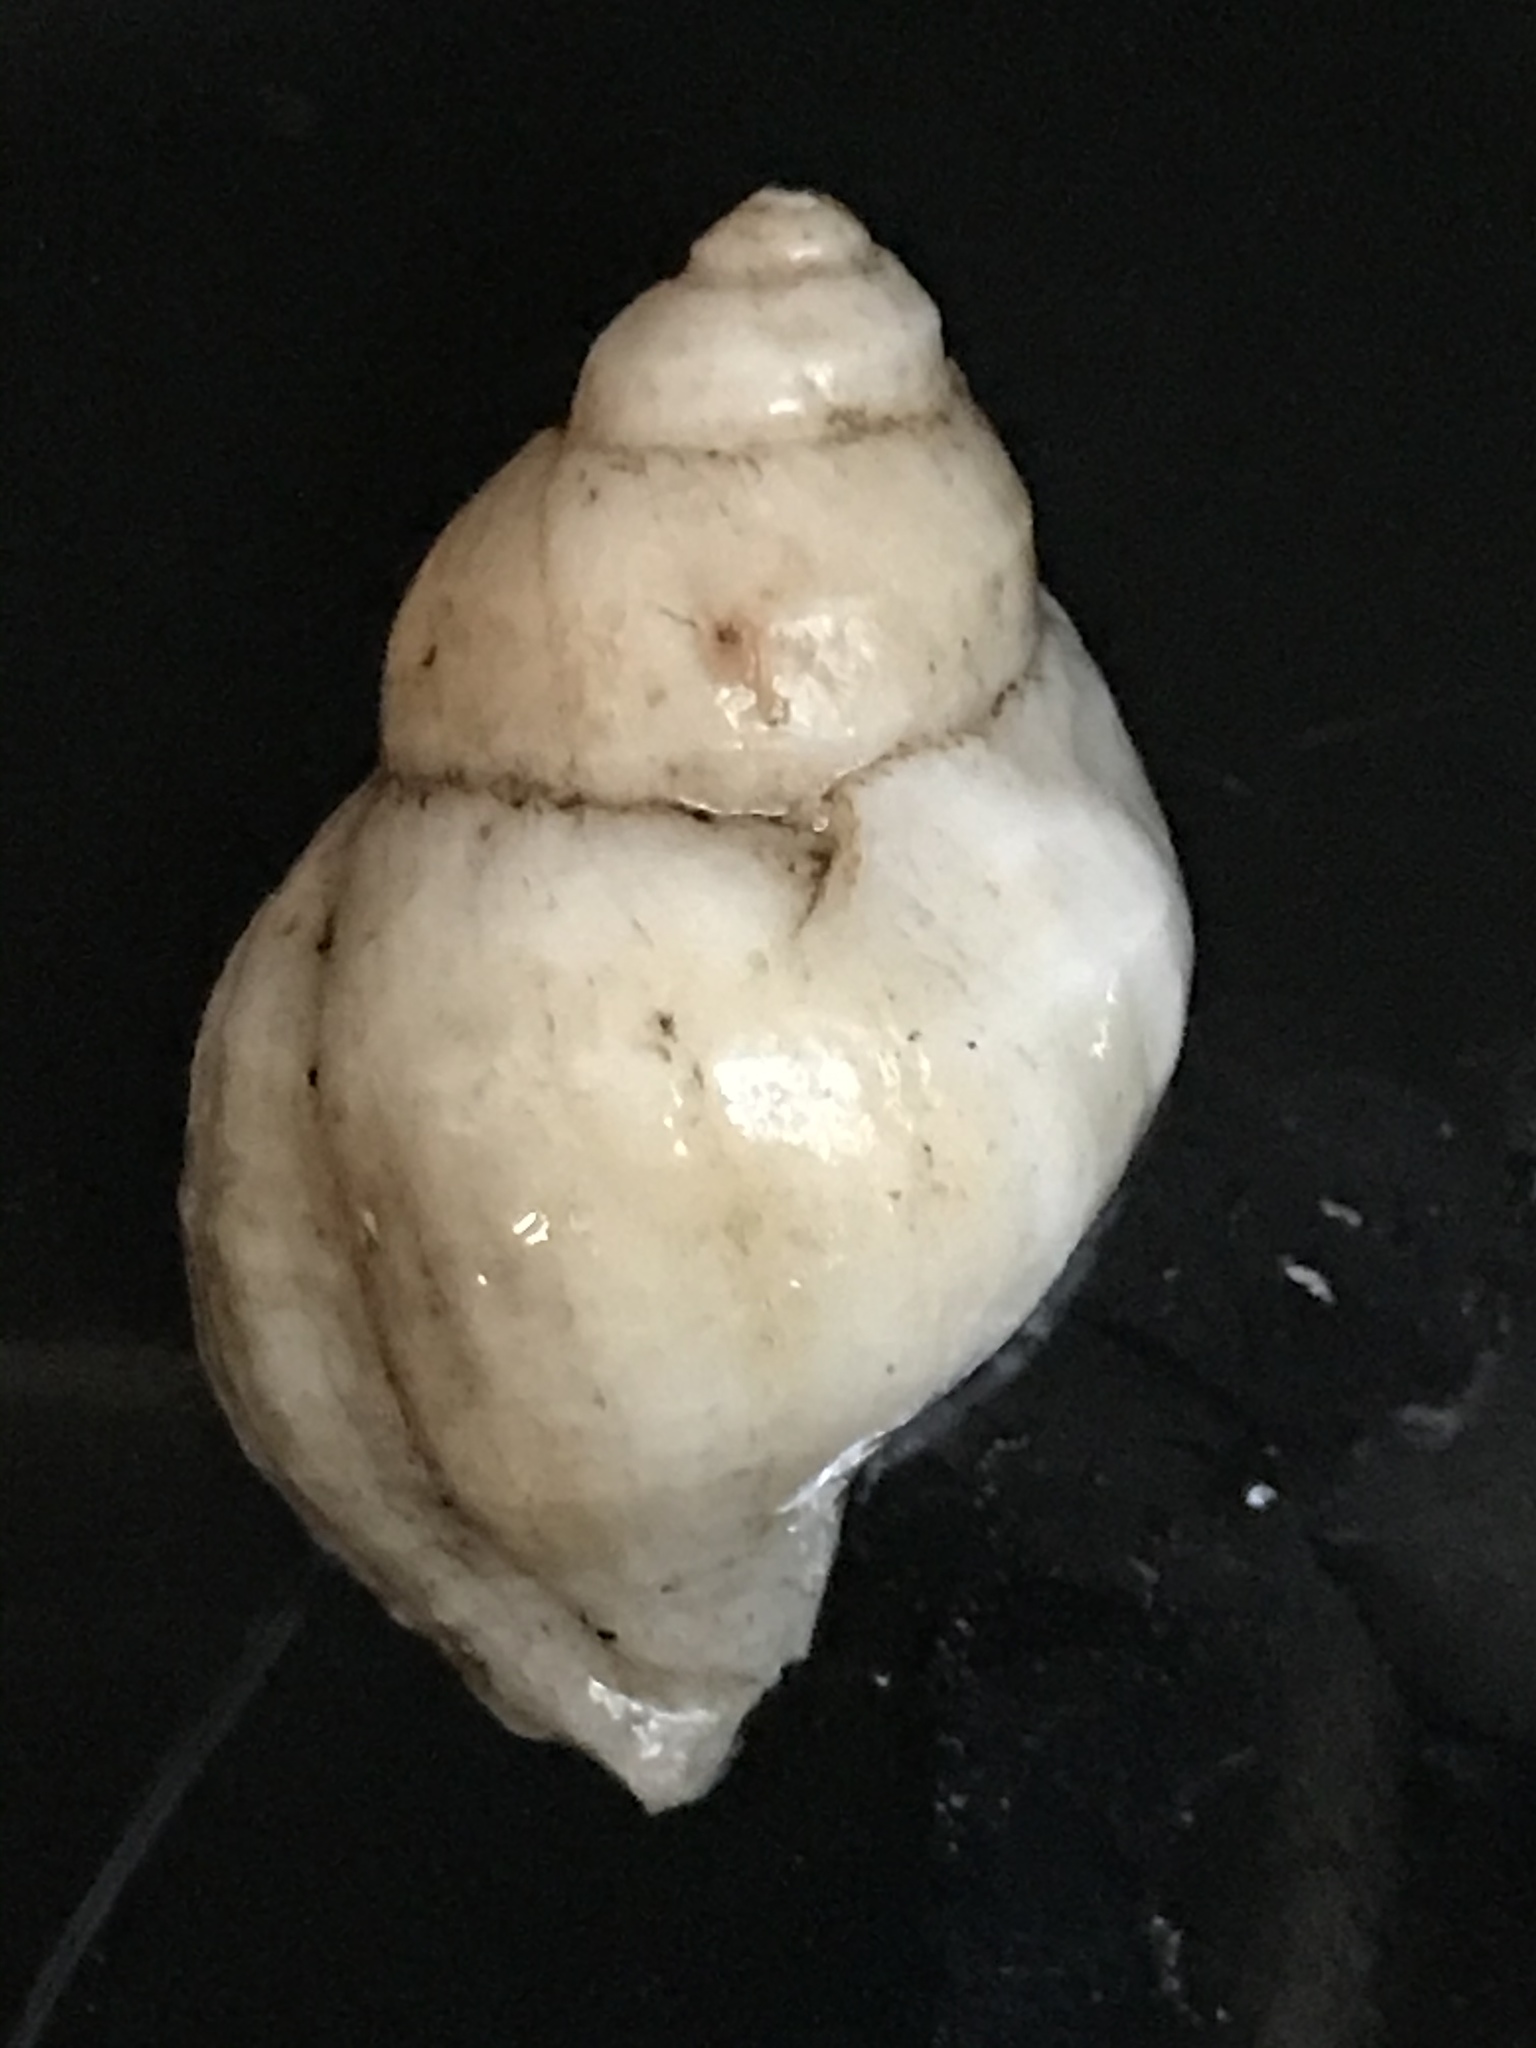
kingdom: Animalia
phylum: Mollusca
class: Gastropoda
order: Neogastropoda
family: Muricidae
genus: Nucella
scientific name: Nucella lamellosa
